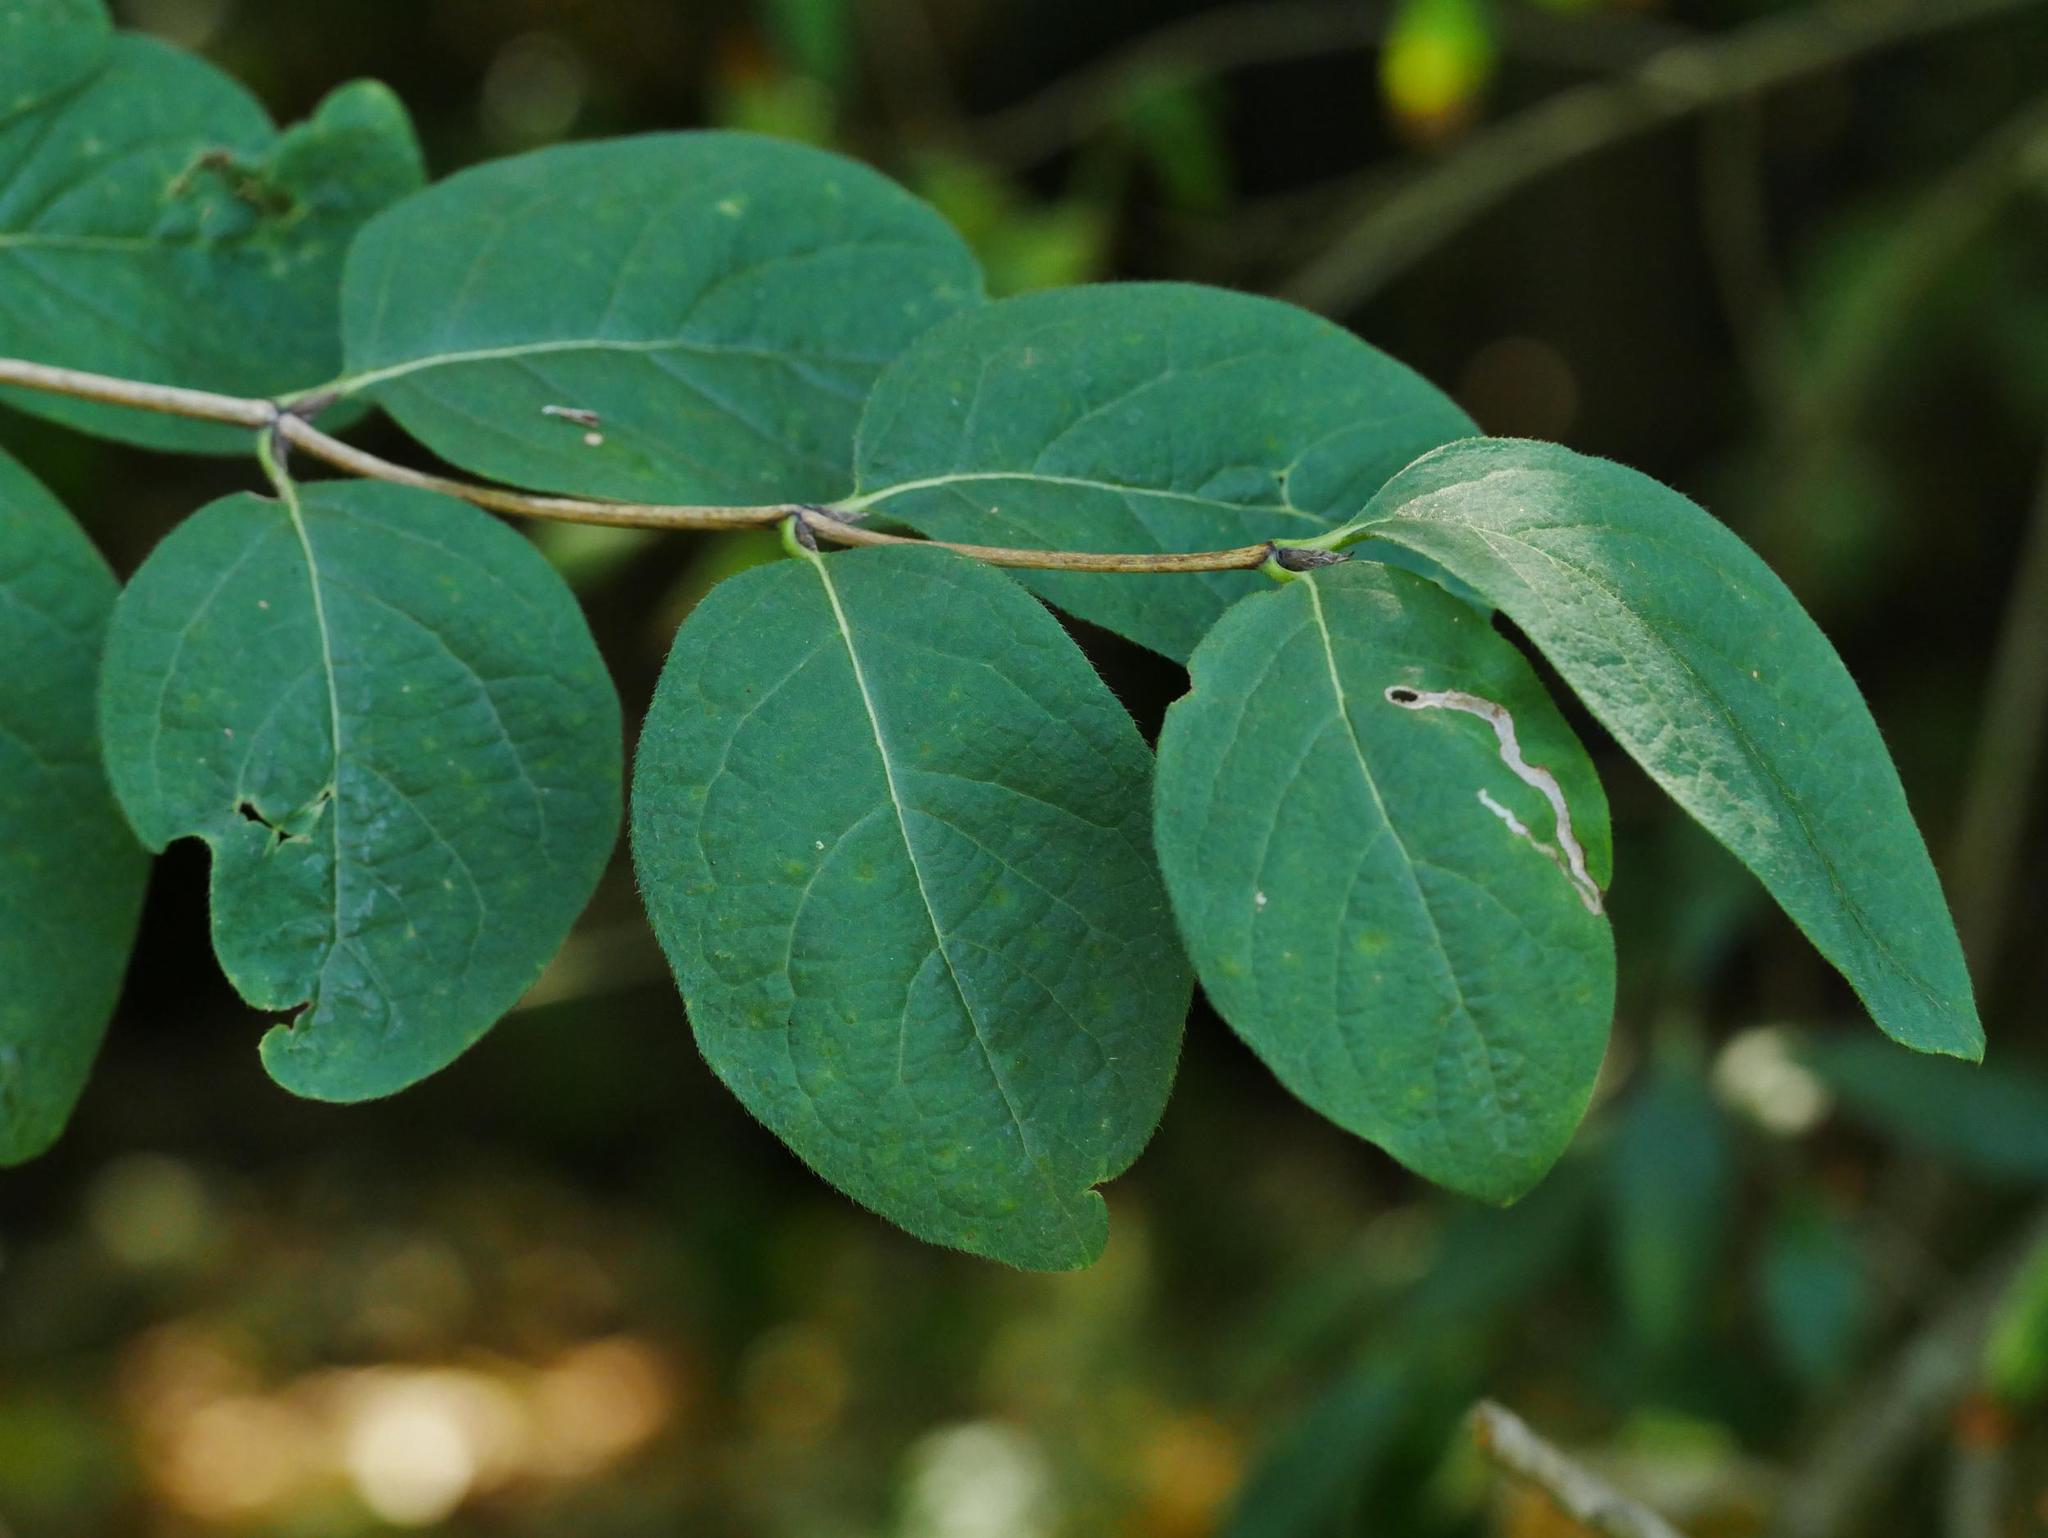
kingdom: Plantae
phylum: Tracheophyta
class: Magnoliopsida
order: Dipsacales
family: Caprifoliaceae
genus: Lonicera
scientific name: Lonicera xylosteum
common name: Fly honeysuckle
